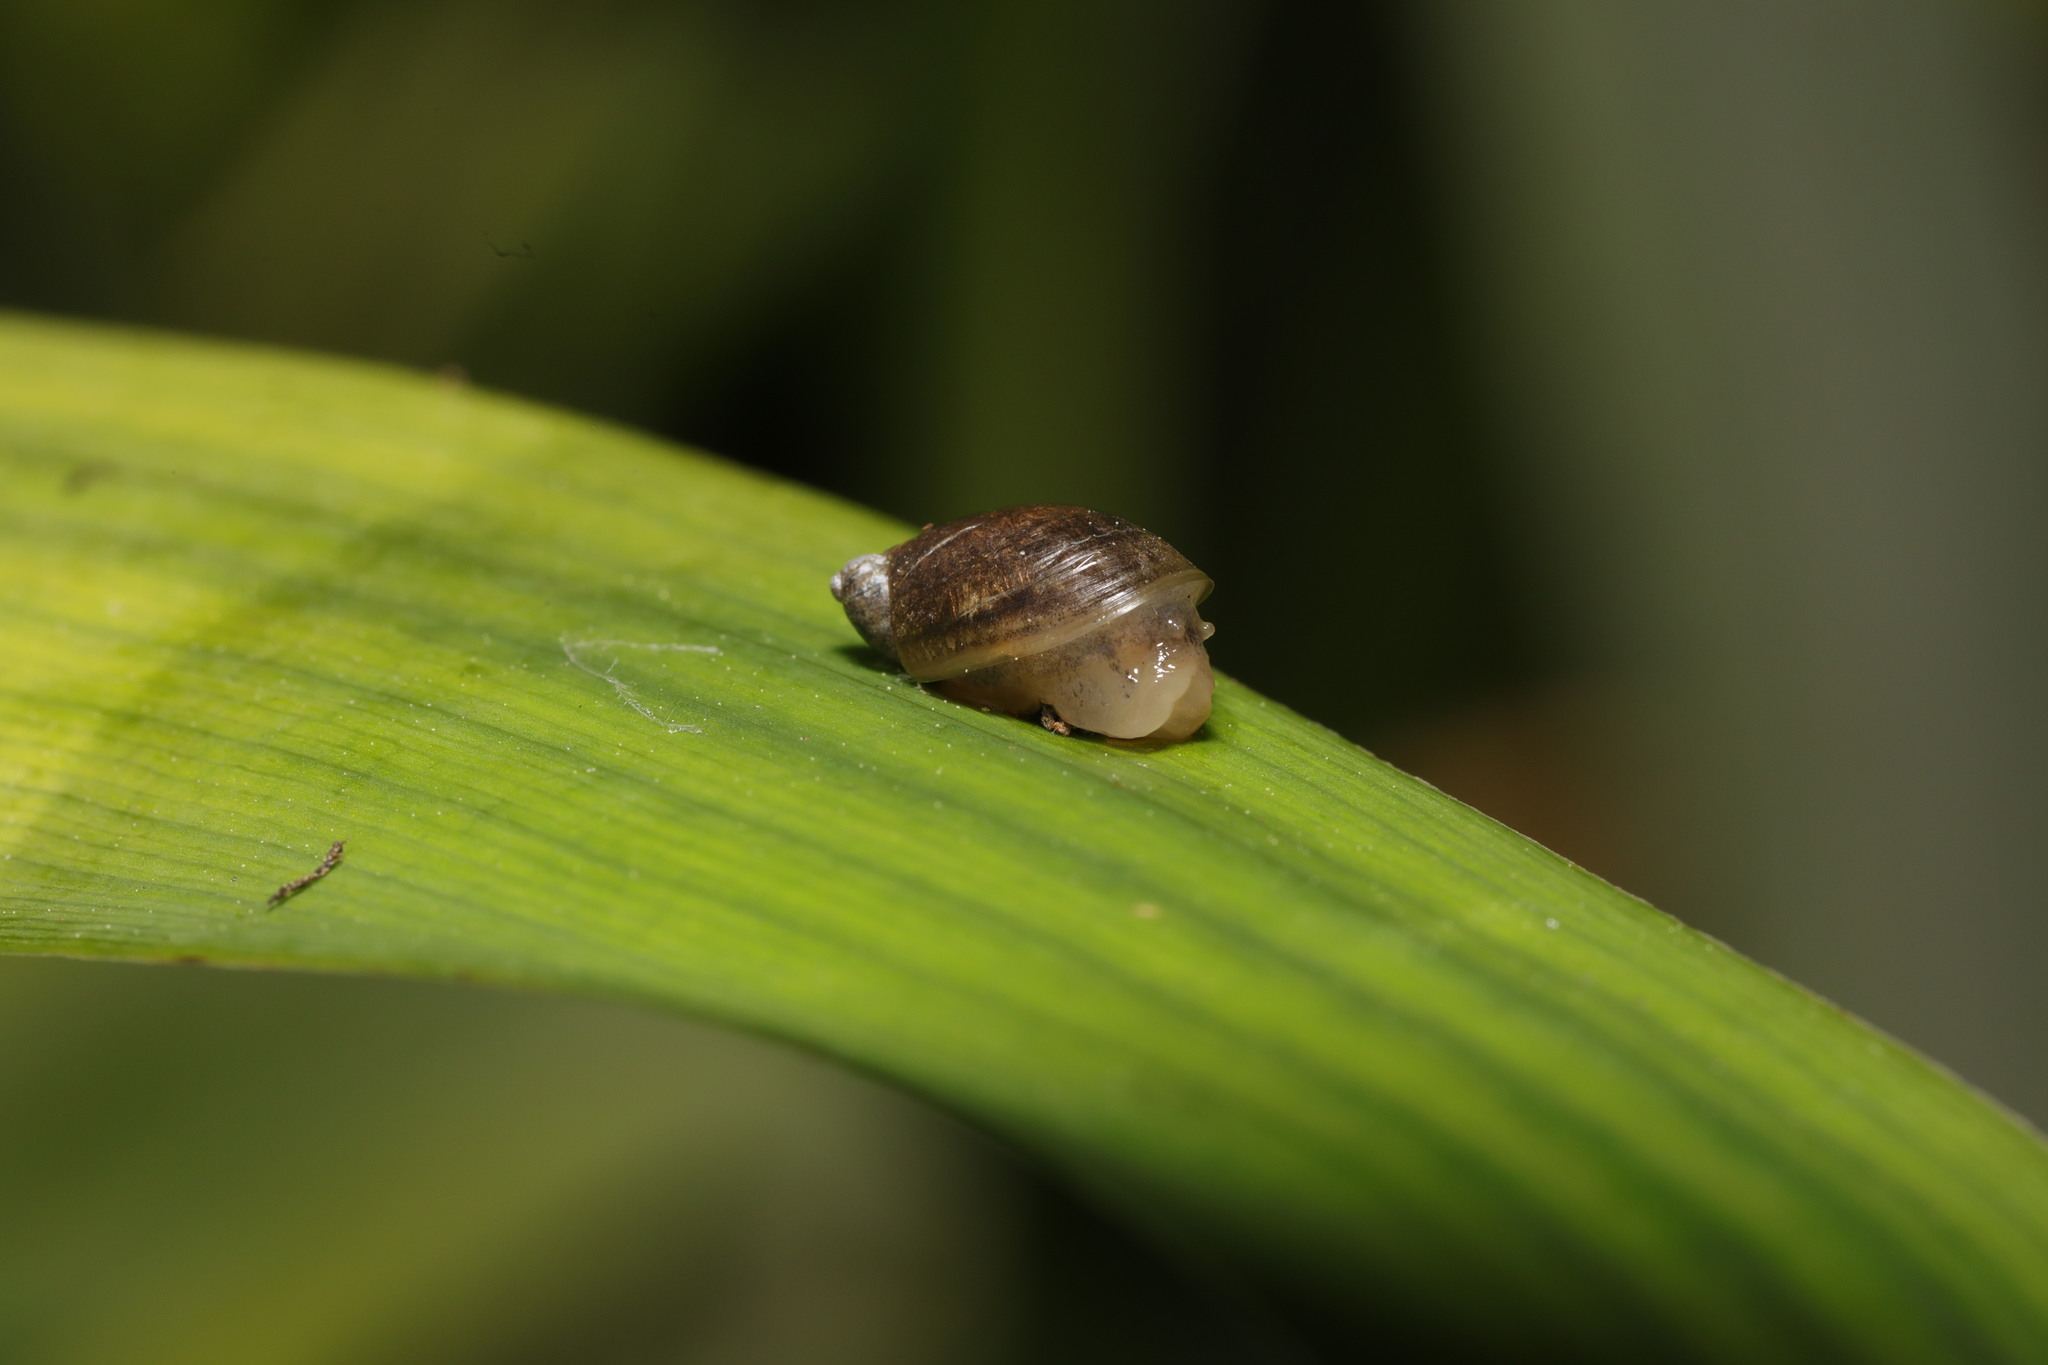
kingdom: Animalia
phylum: Mollusca
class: Gastropoda
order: Stylommatophora
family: Succineidae
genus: Succinea
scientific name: Succinea putris
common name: European ambersnail
